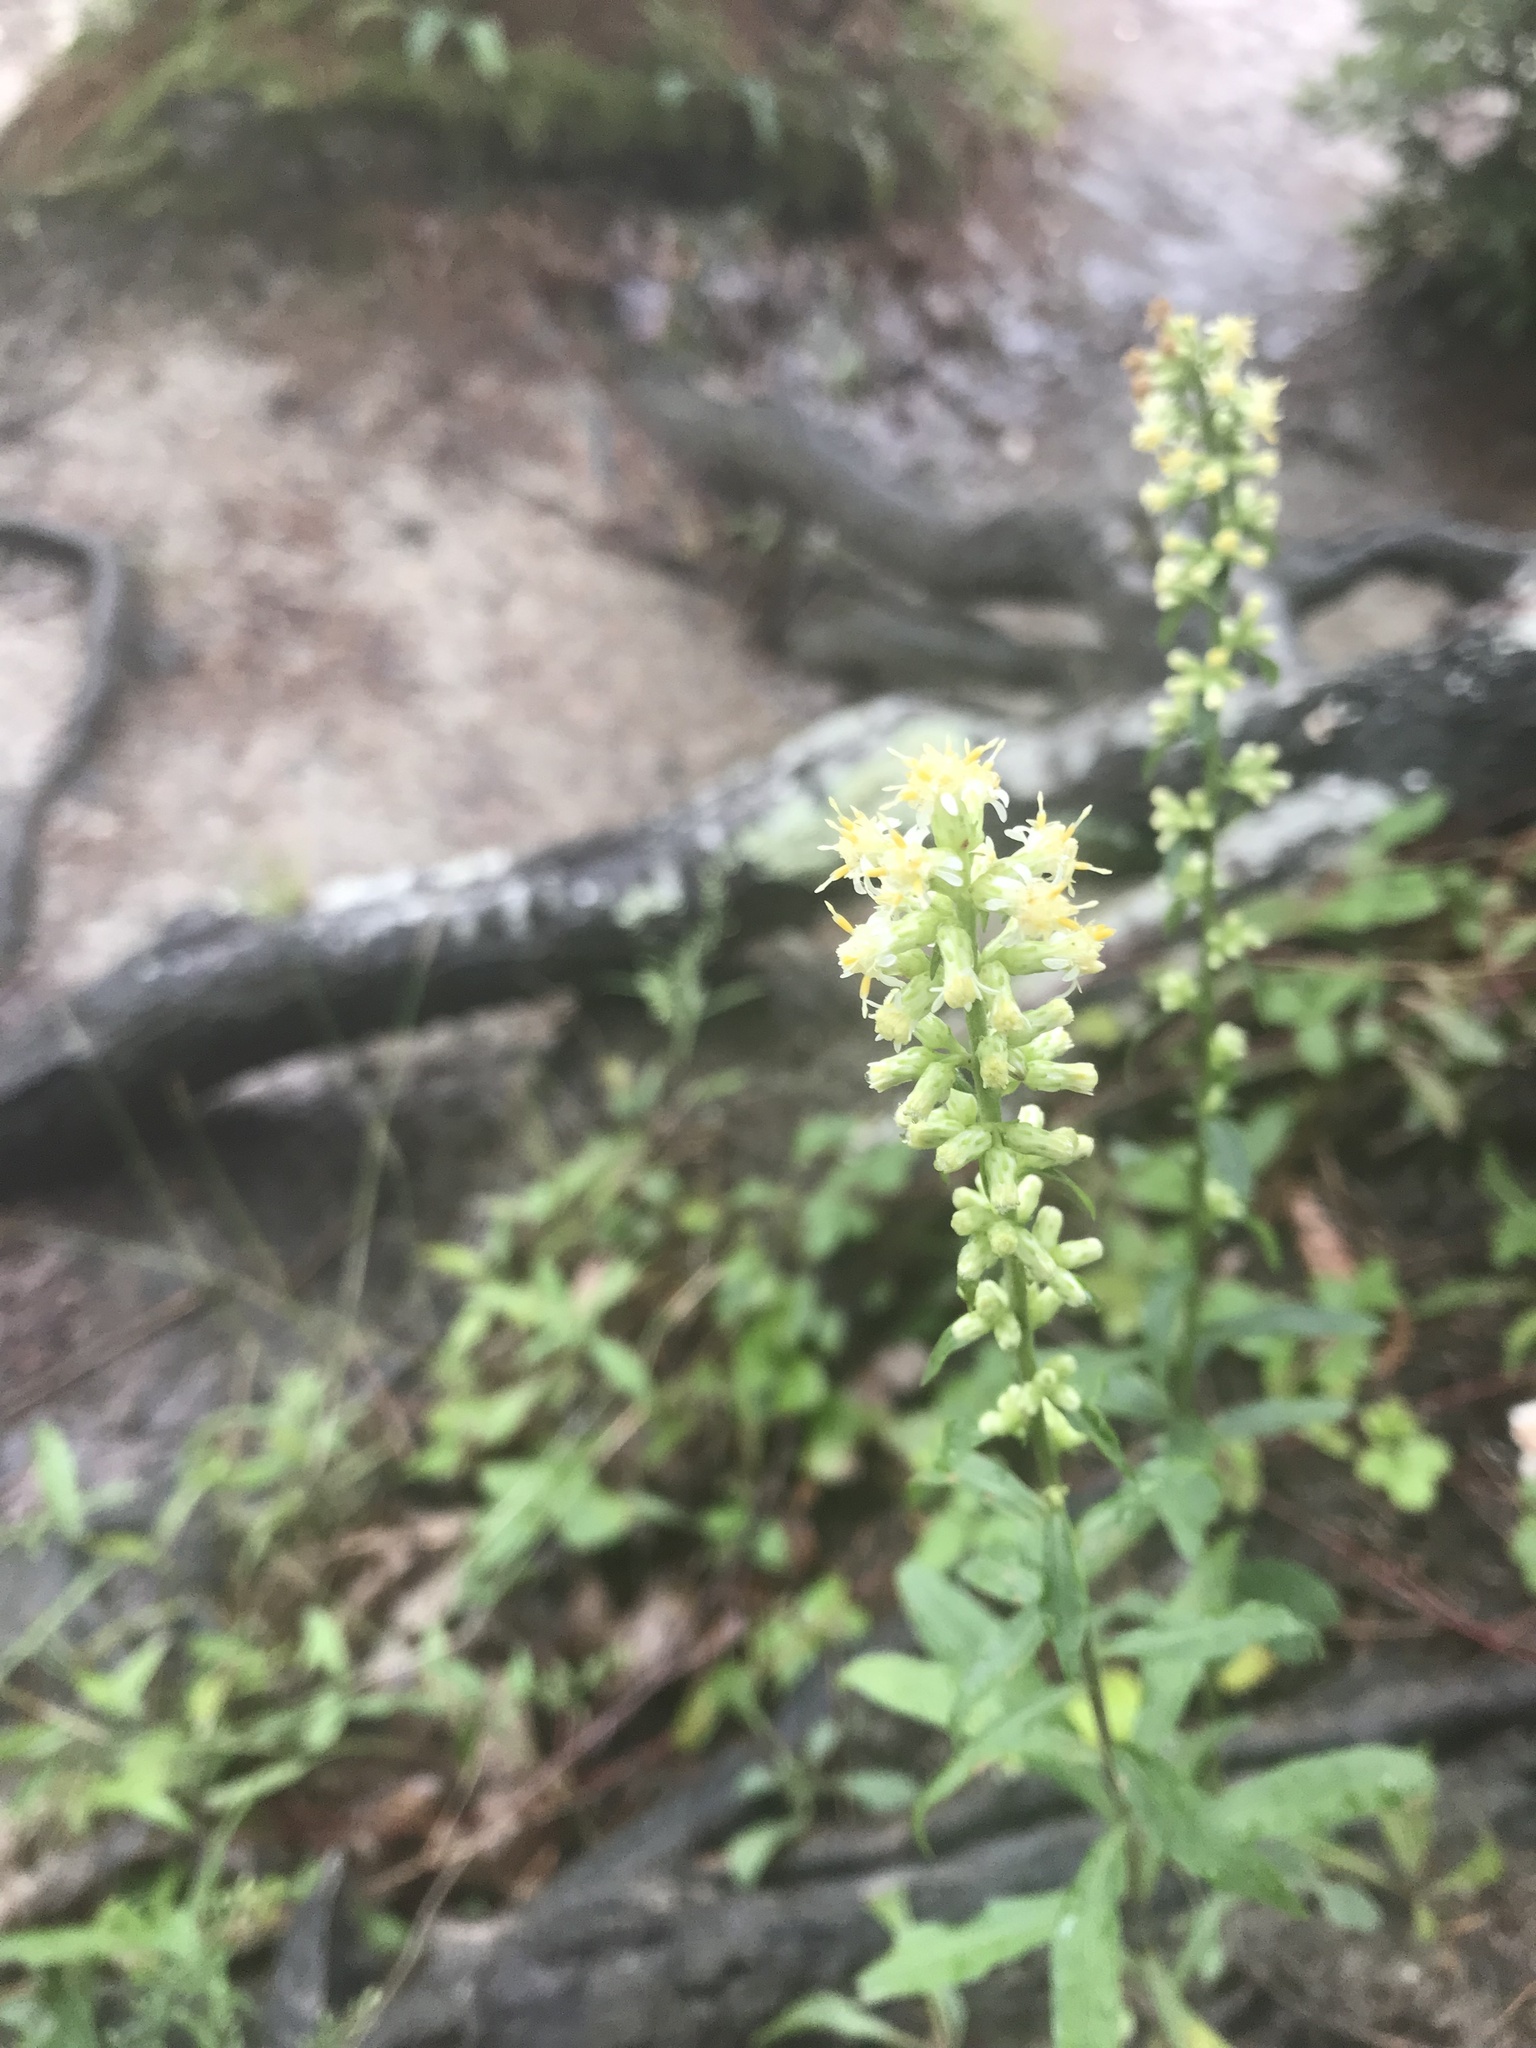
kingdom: Plantae
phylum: Tracheophyta
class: Magnoliopsida
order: Asterales
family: Asteraceae
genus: Solidago
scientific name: Solidago bicolor
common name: Silverrod
